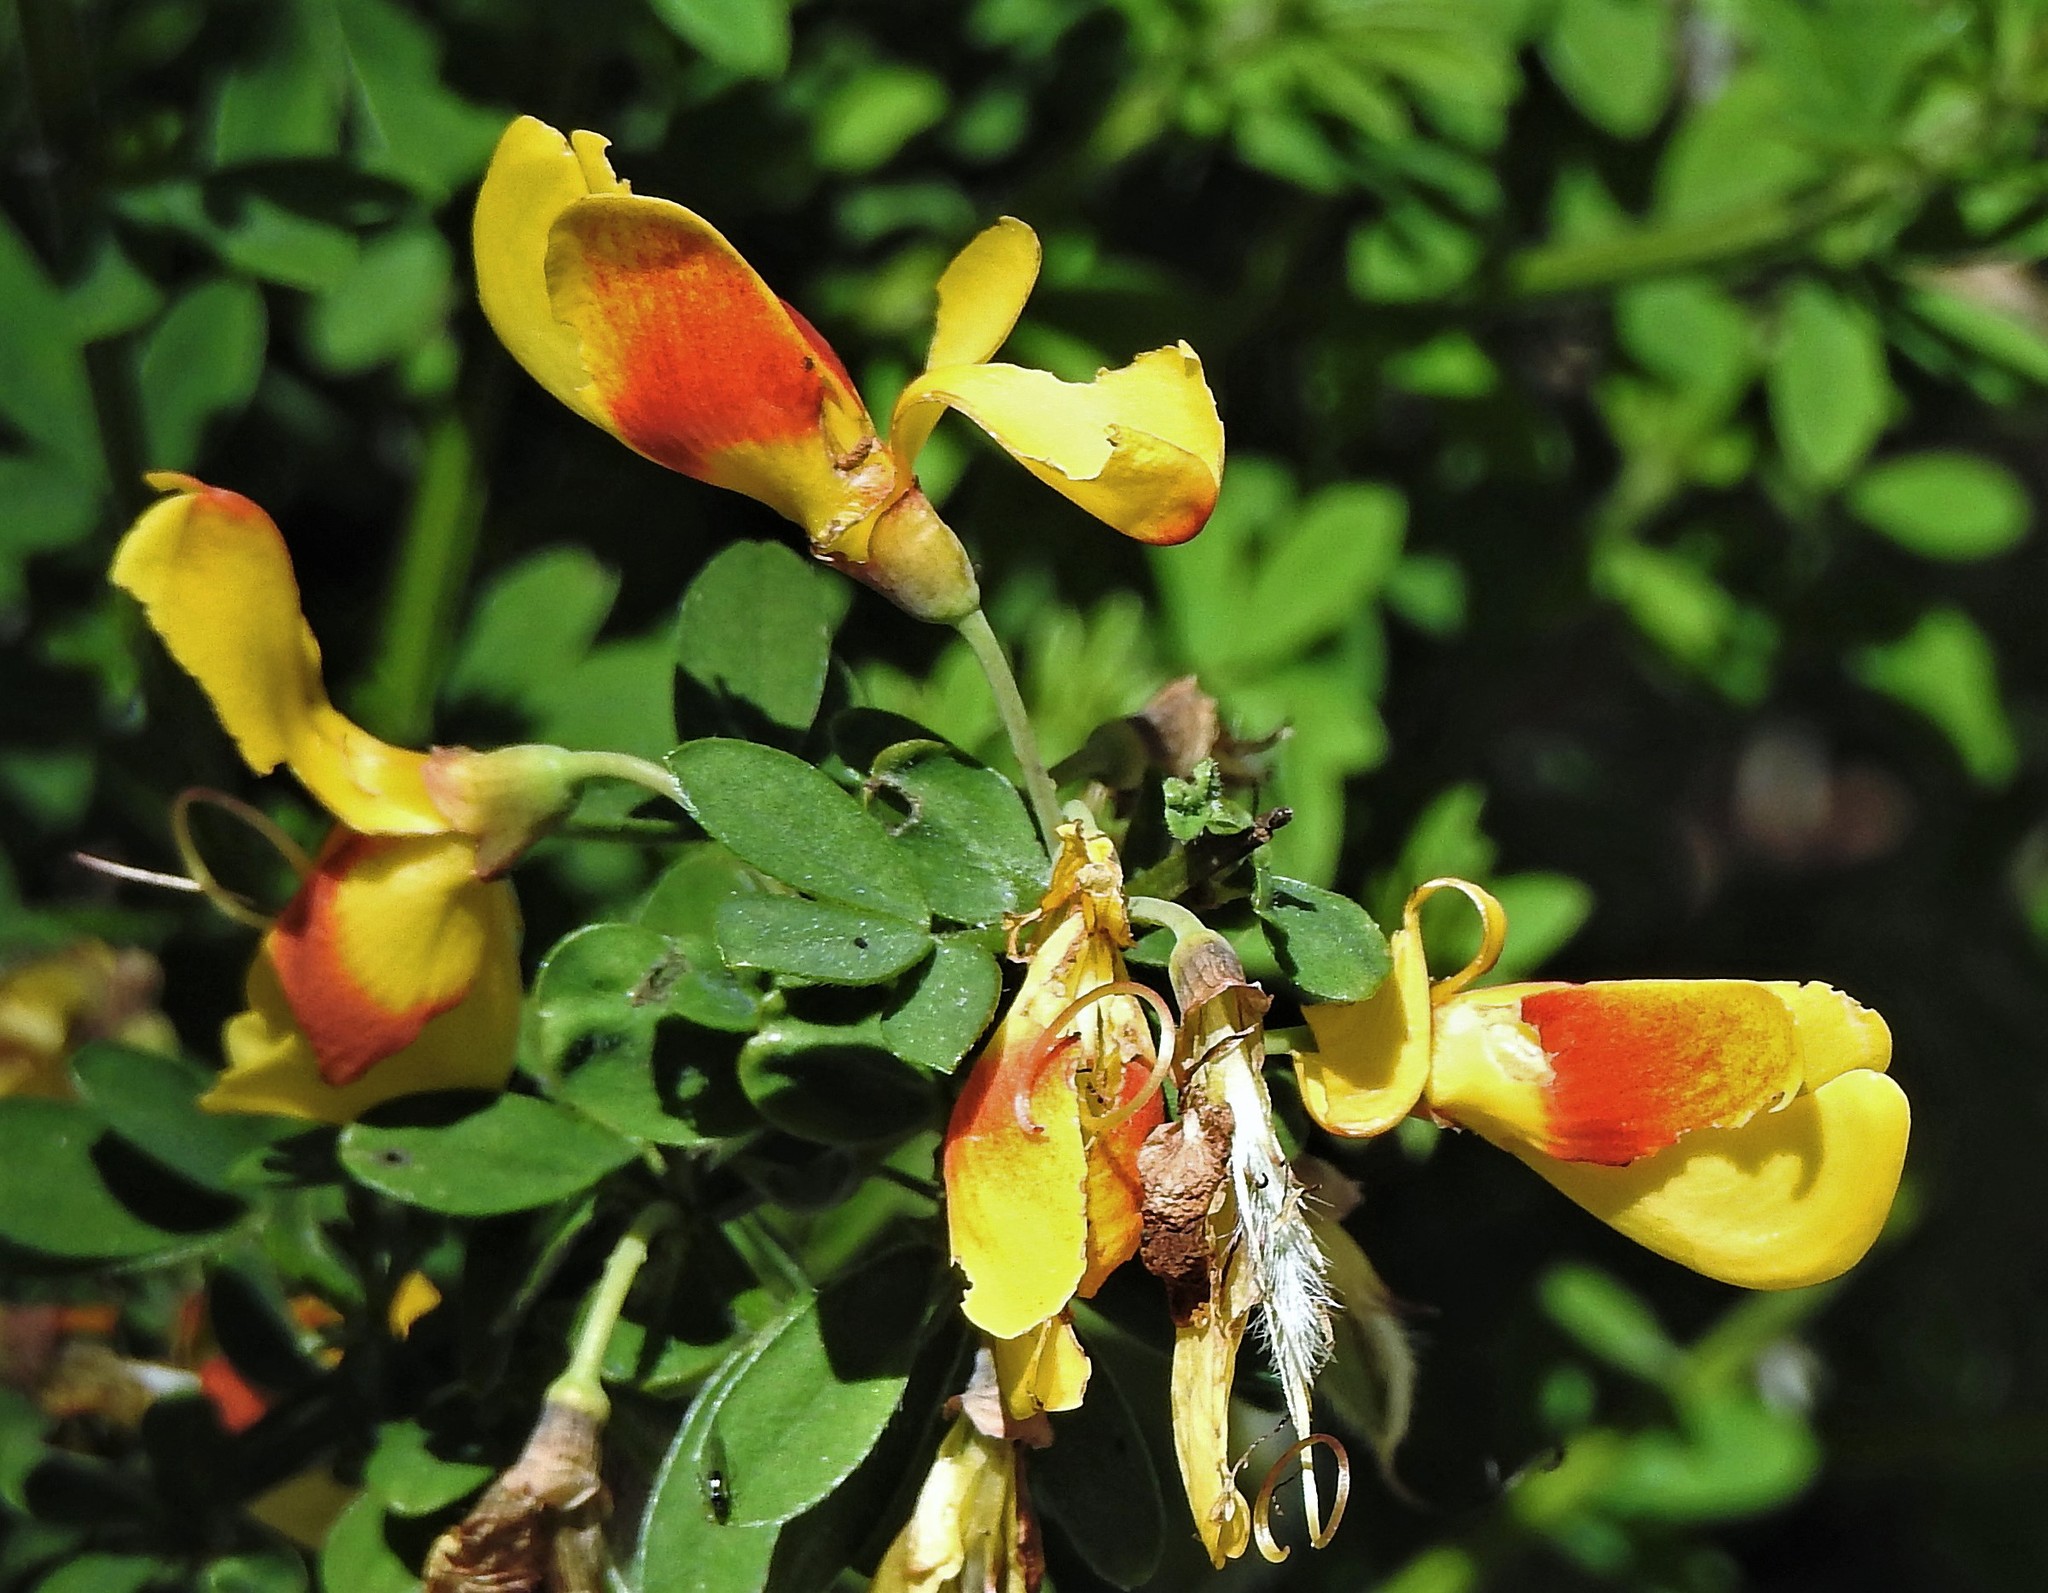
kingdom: Plantae
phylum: Tracheophyta
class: Magnoliopsida
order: Fabales
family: Fabaceae
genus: Cytisus
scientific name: Cytisus scoparius
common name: Scotch broom
